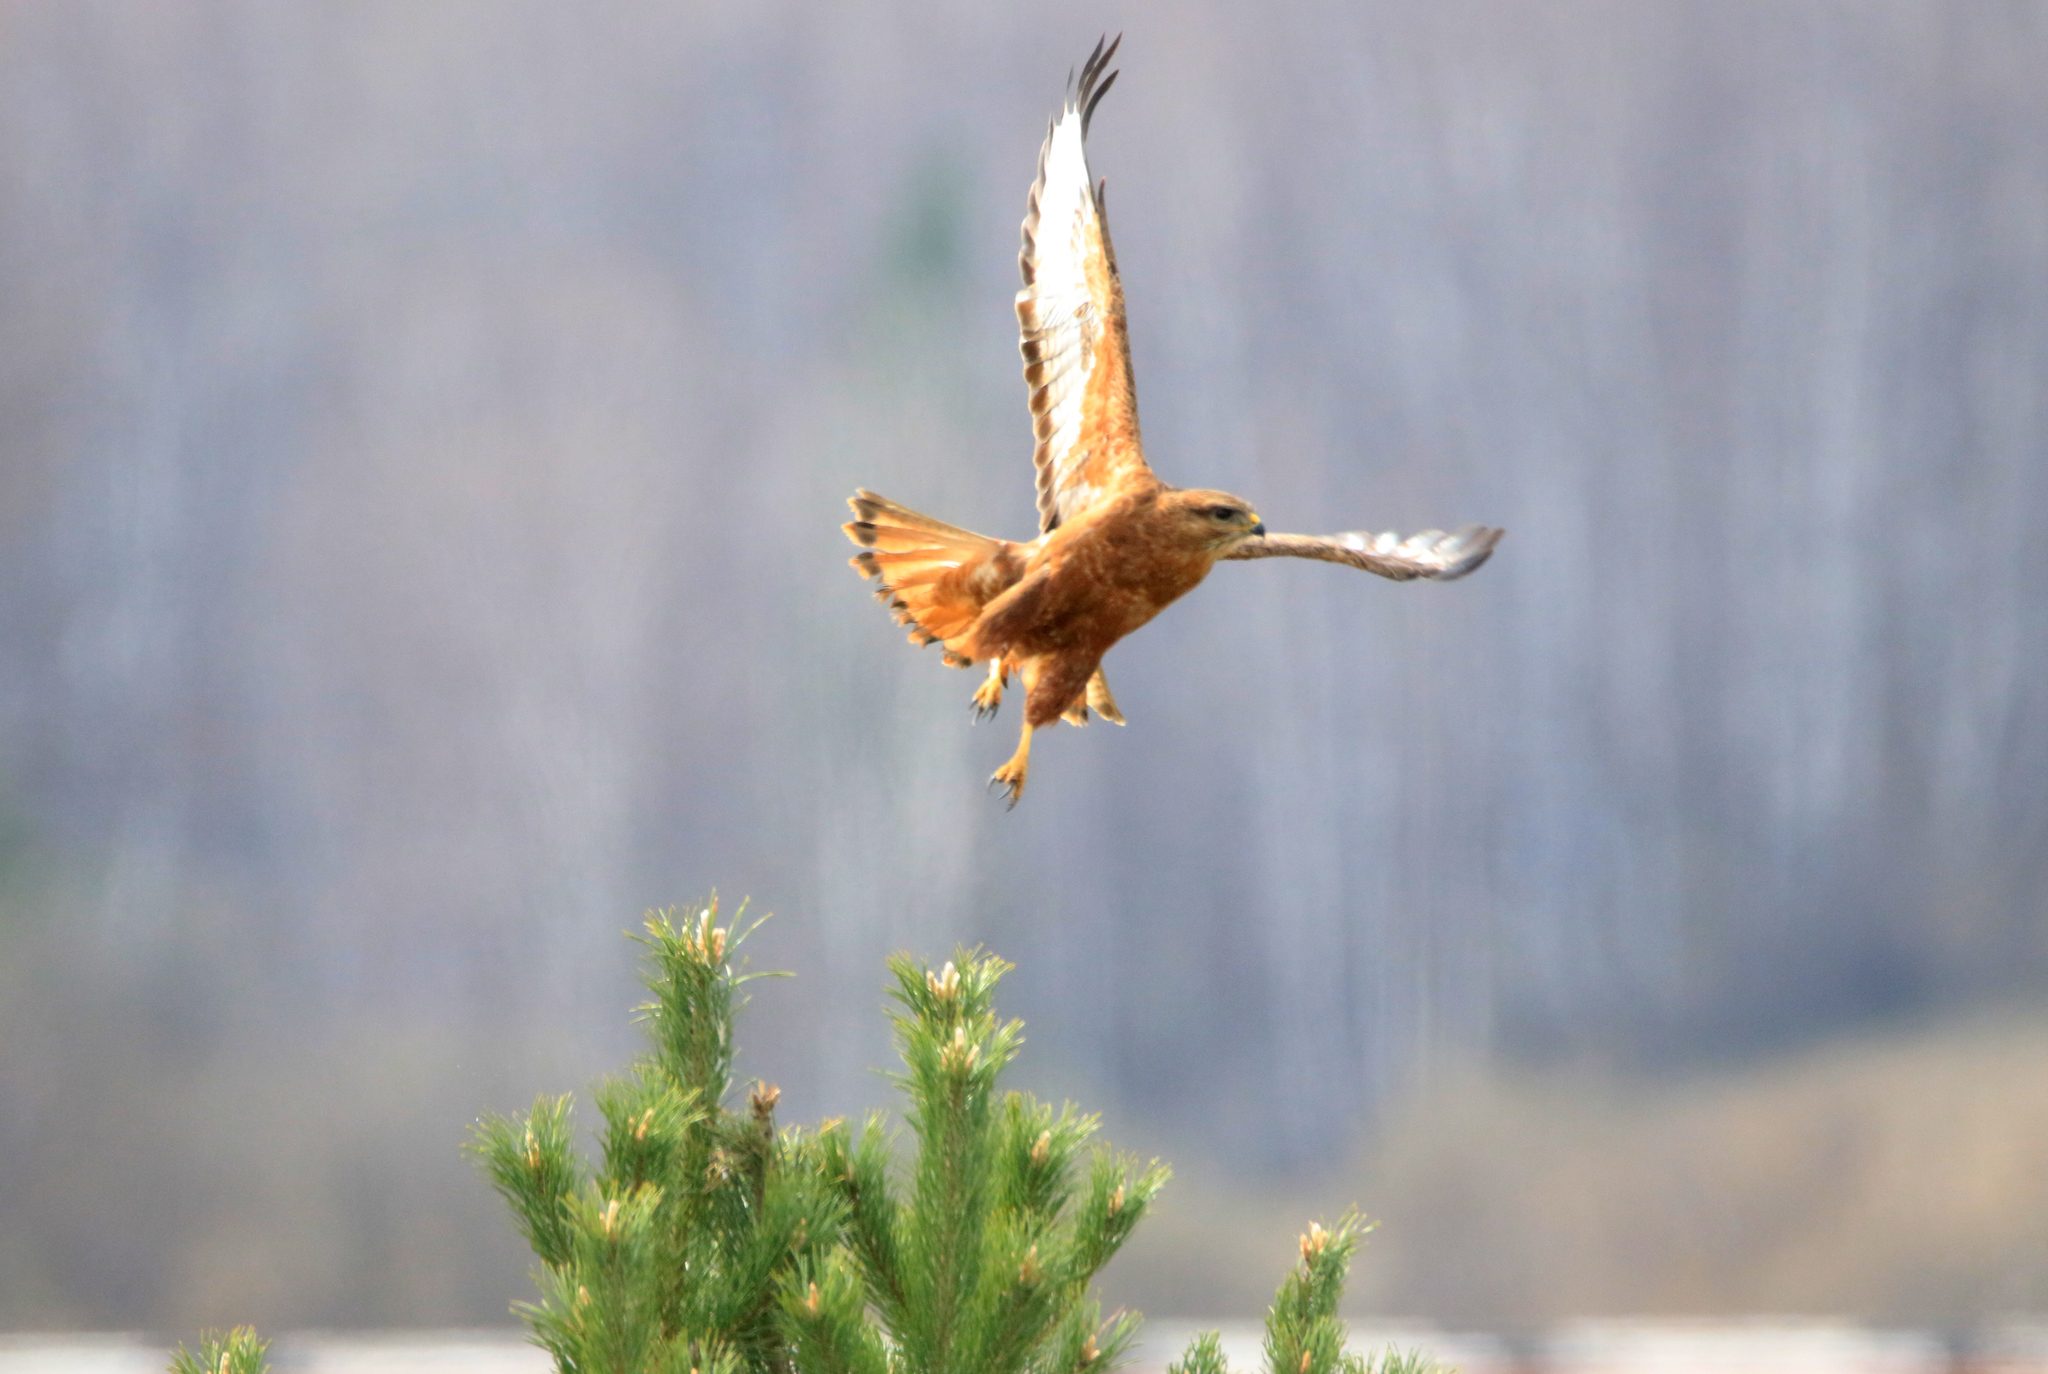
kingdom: Animalia
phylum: Chordata
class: Aves
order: Accipitriformes
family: Accipitridae
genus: Buteo
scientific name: Buteo buteo
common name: Common buzzard
